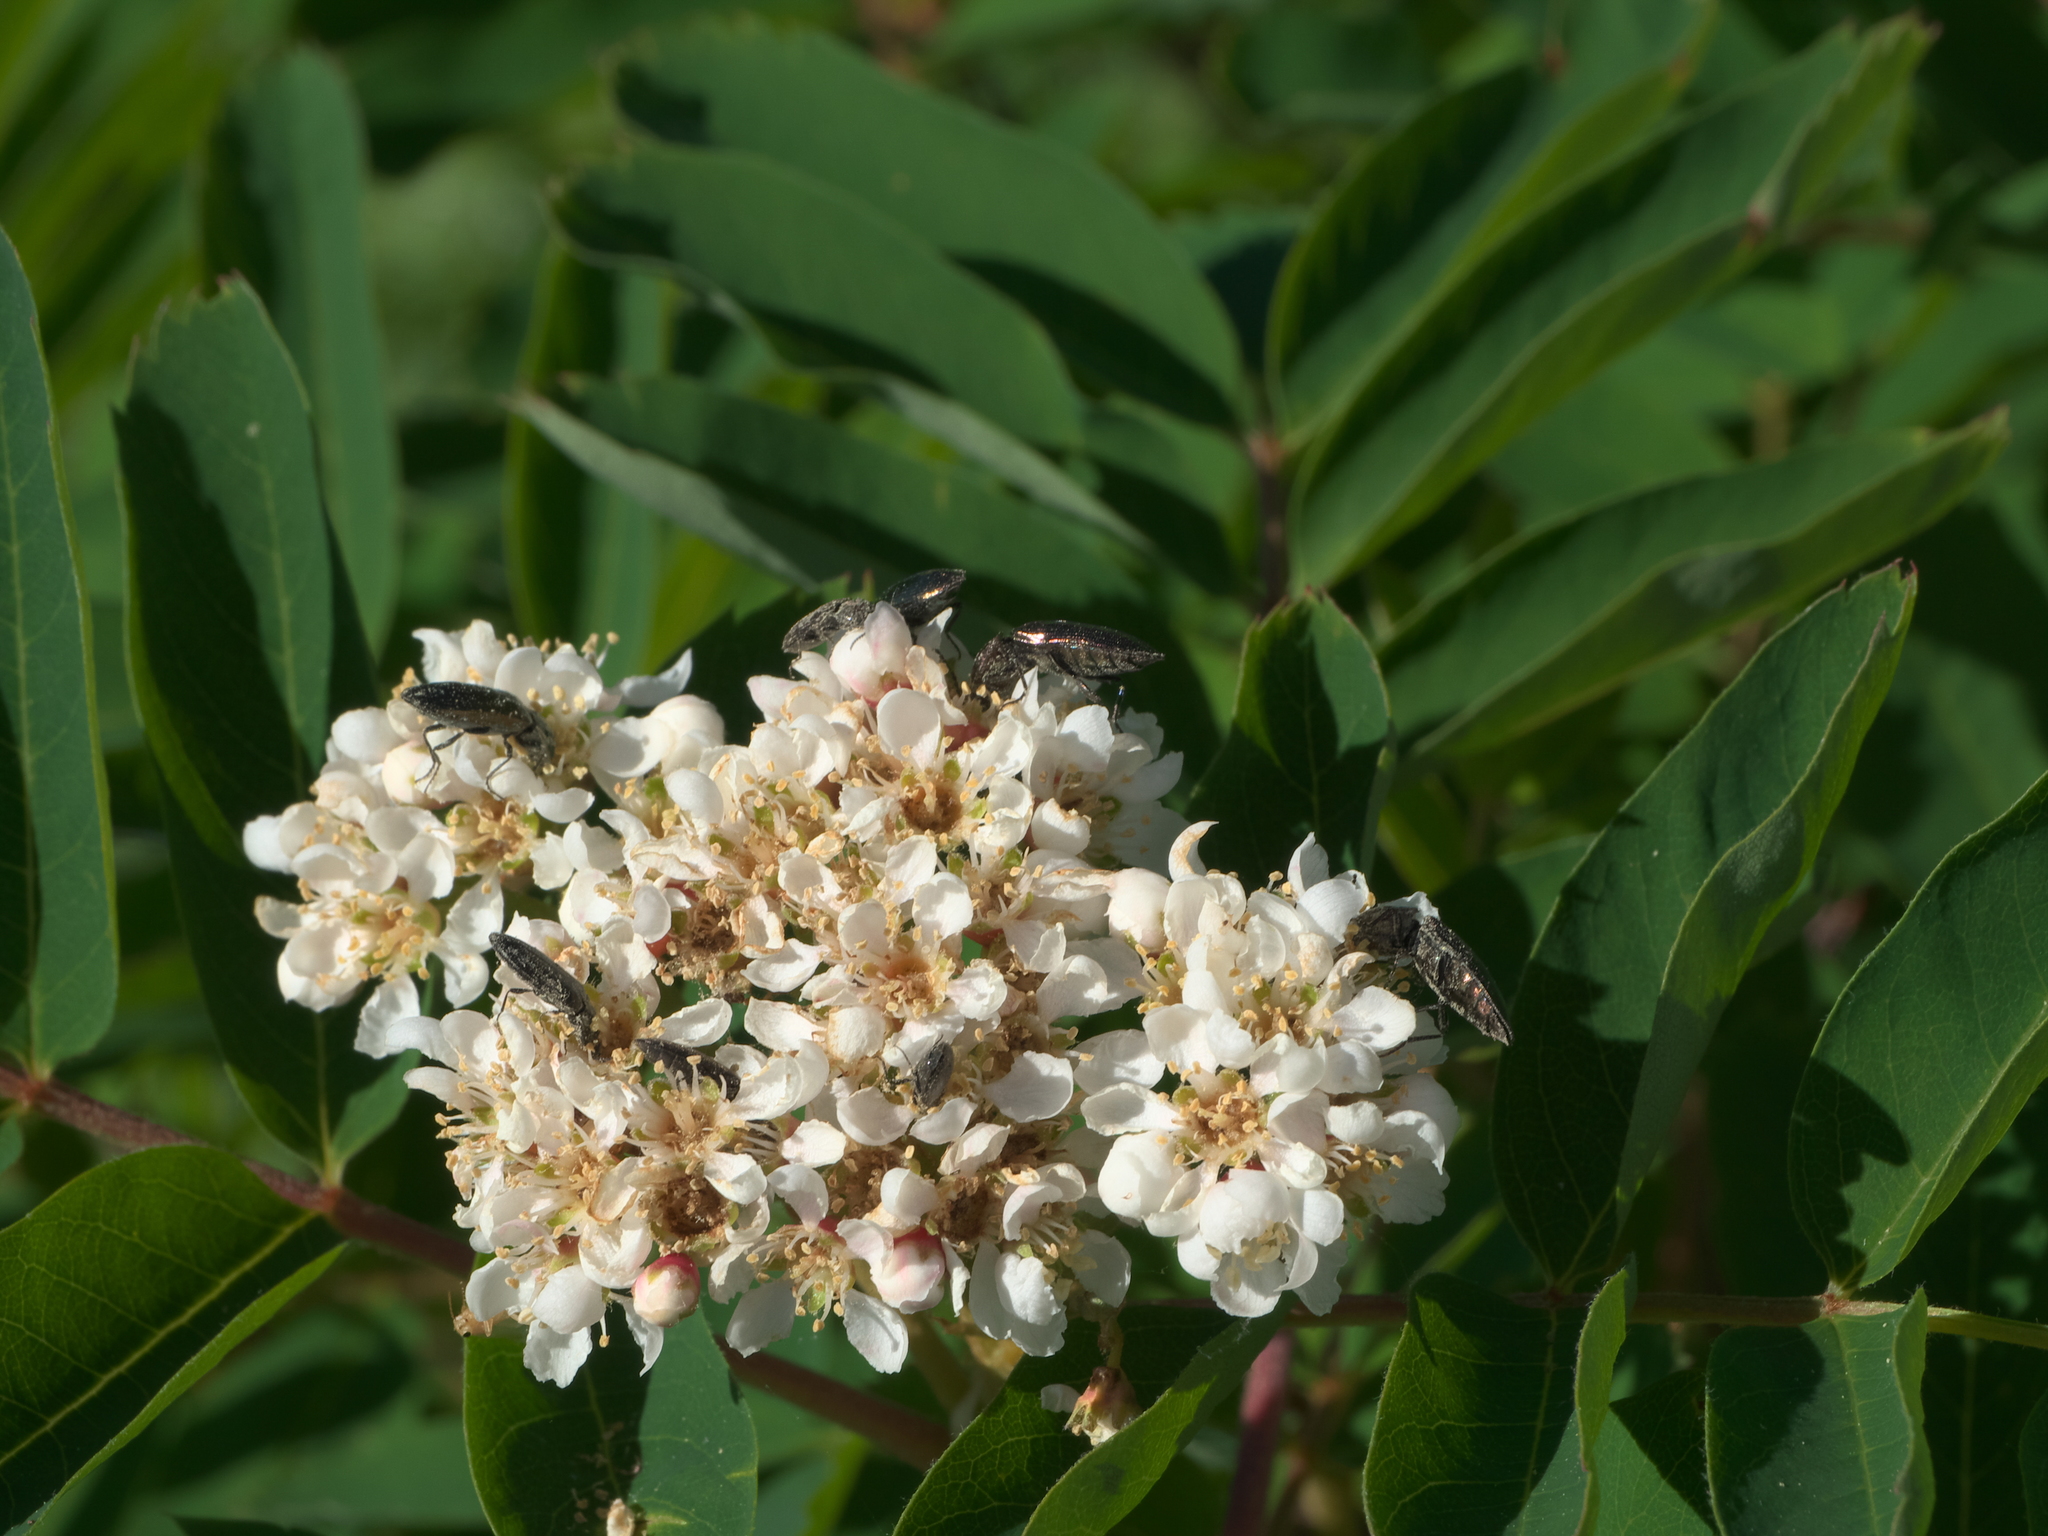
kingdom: Plantae
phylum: Tracheophyta
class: Magnoliopsida
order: Rosales
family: Rosaceae
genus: Sorbus
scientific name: Sorbus sitchensis
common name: Sitka mountain-ash
